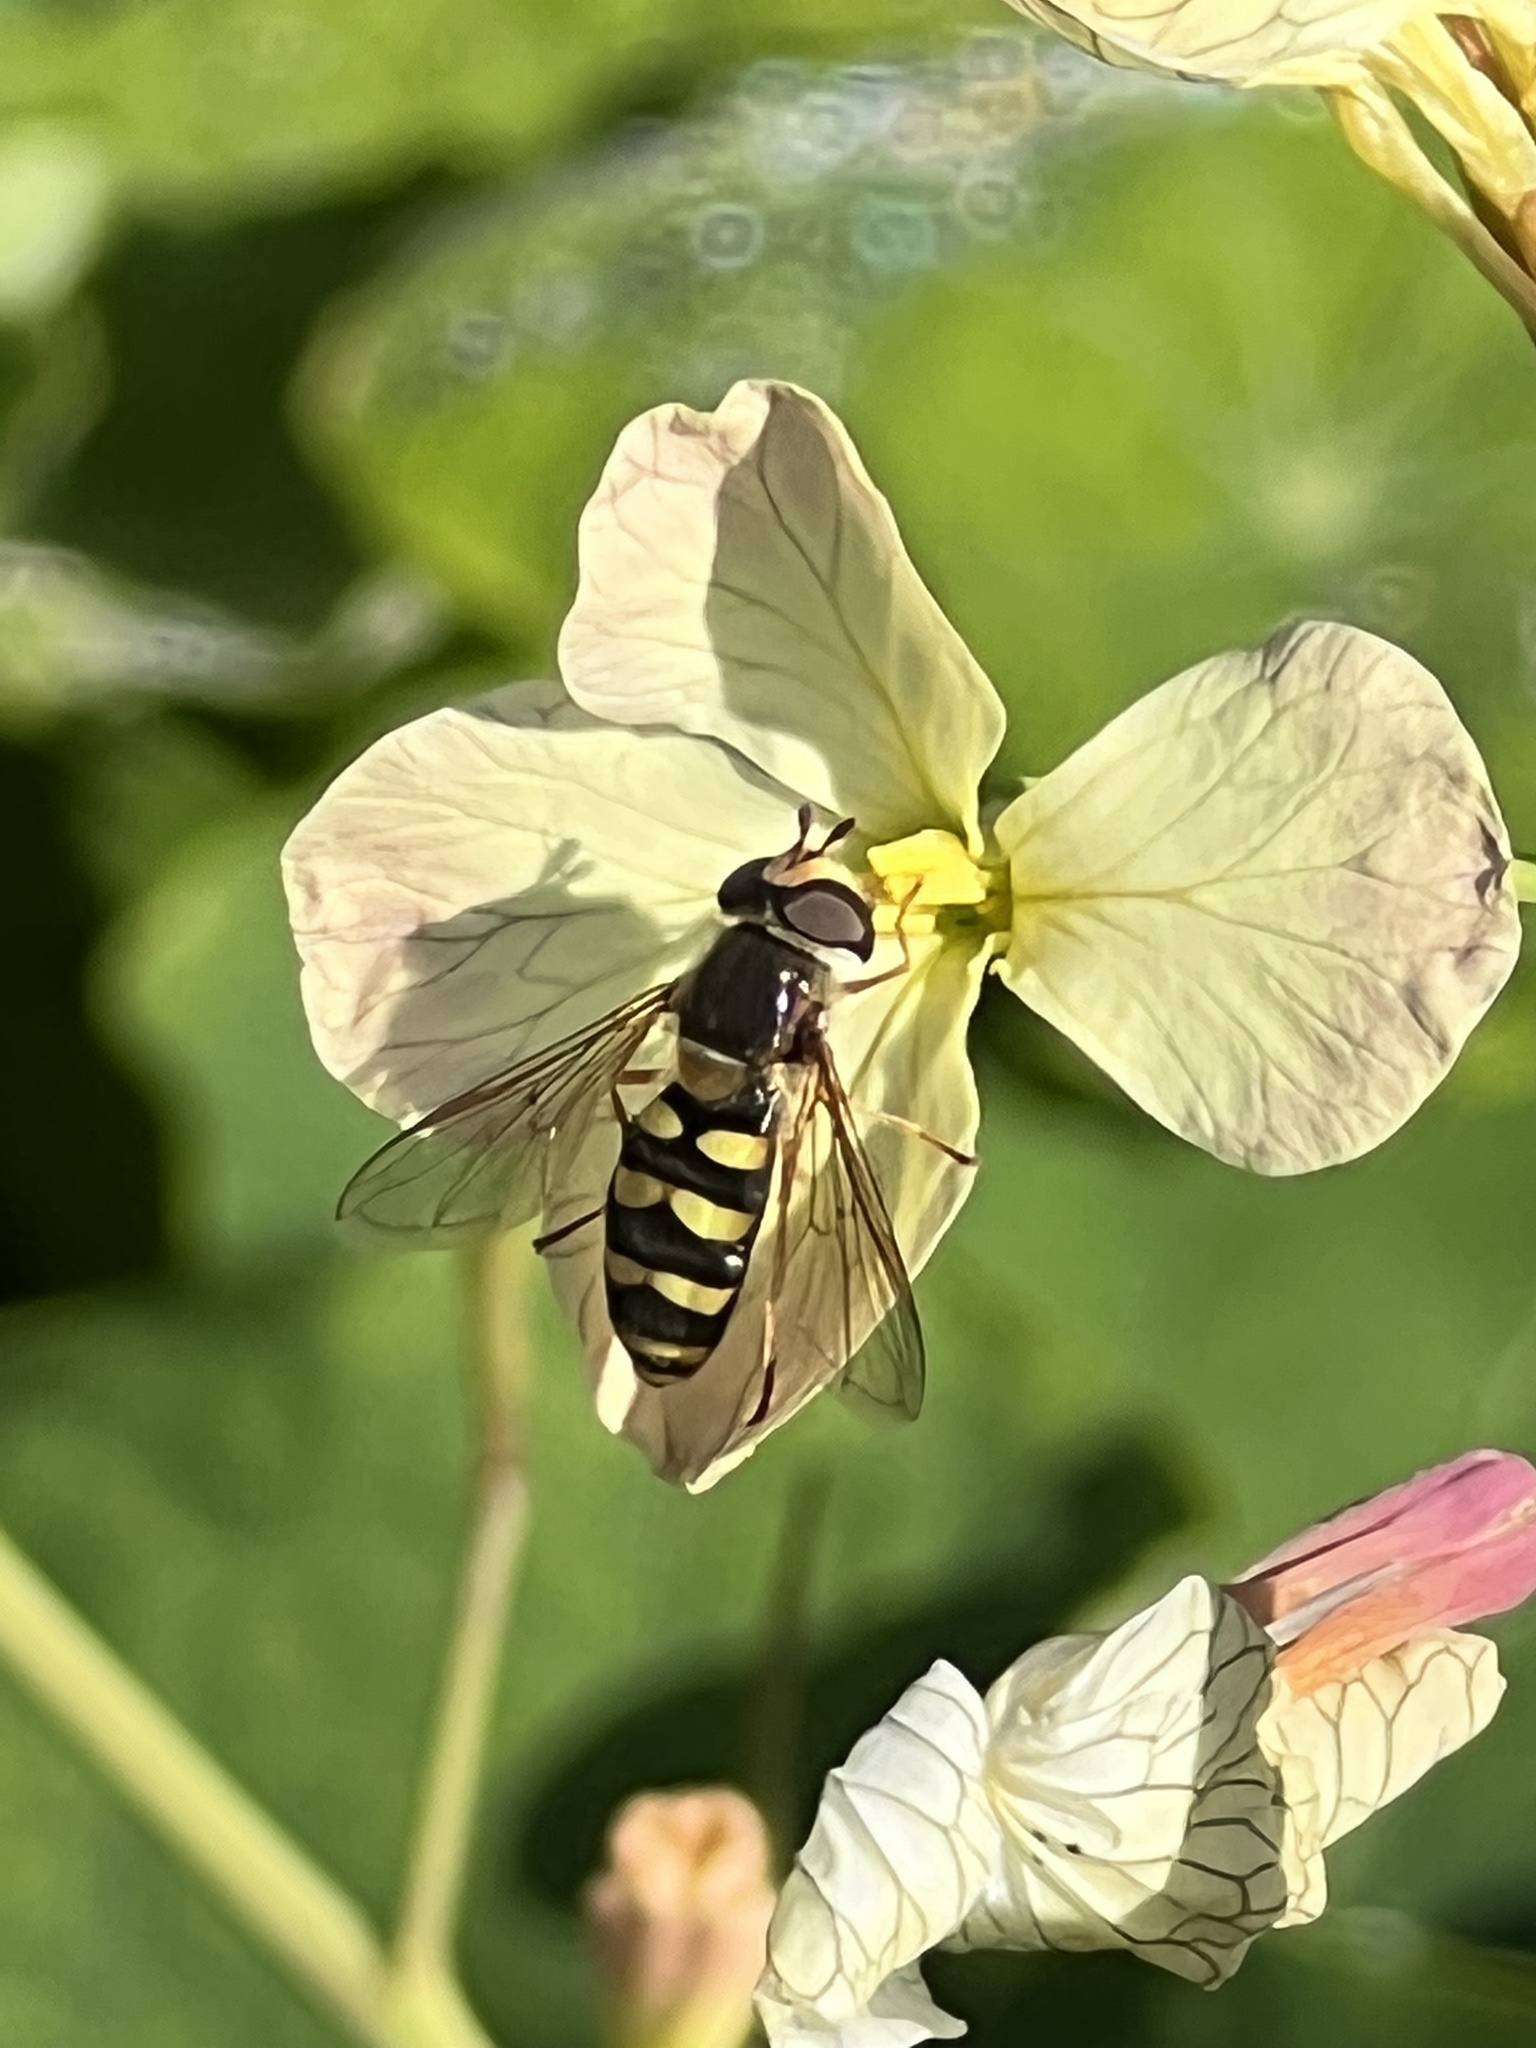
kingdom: Animalia
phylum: Arthropoda
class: Insecta
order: Diptera
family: Syrphidae
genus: Eupeodes
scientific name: Eupeodes fumipennis
